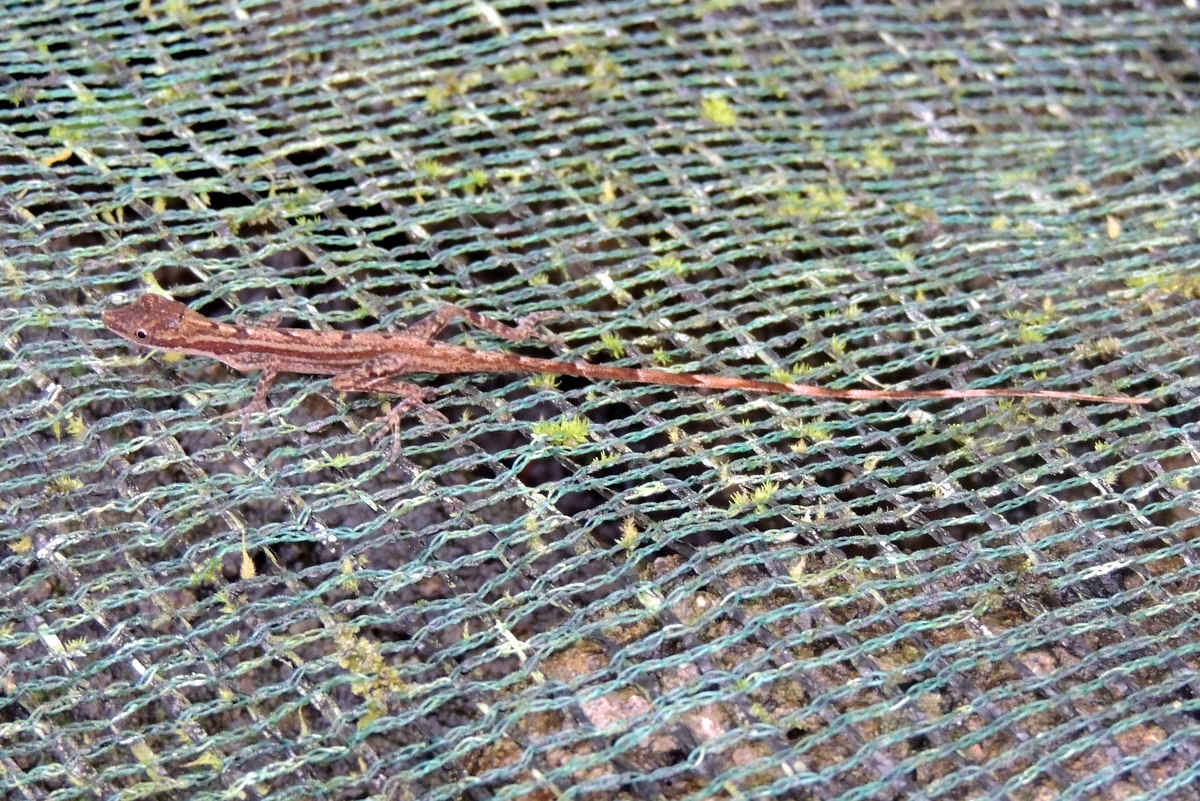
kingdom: Animalia
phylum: Chordata
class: Squamata
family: Dactyloidae
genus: Anolis
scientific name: Anolis limifrons
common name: Border anole
